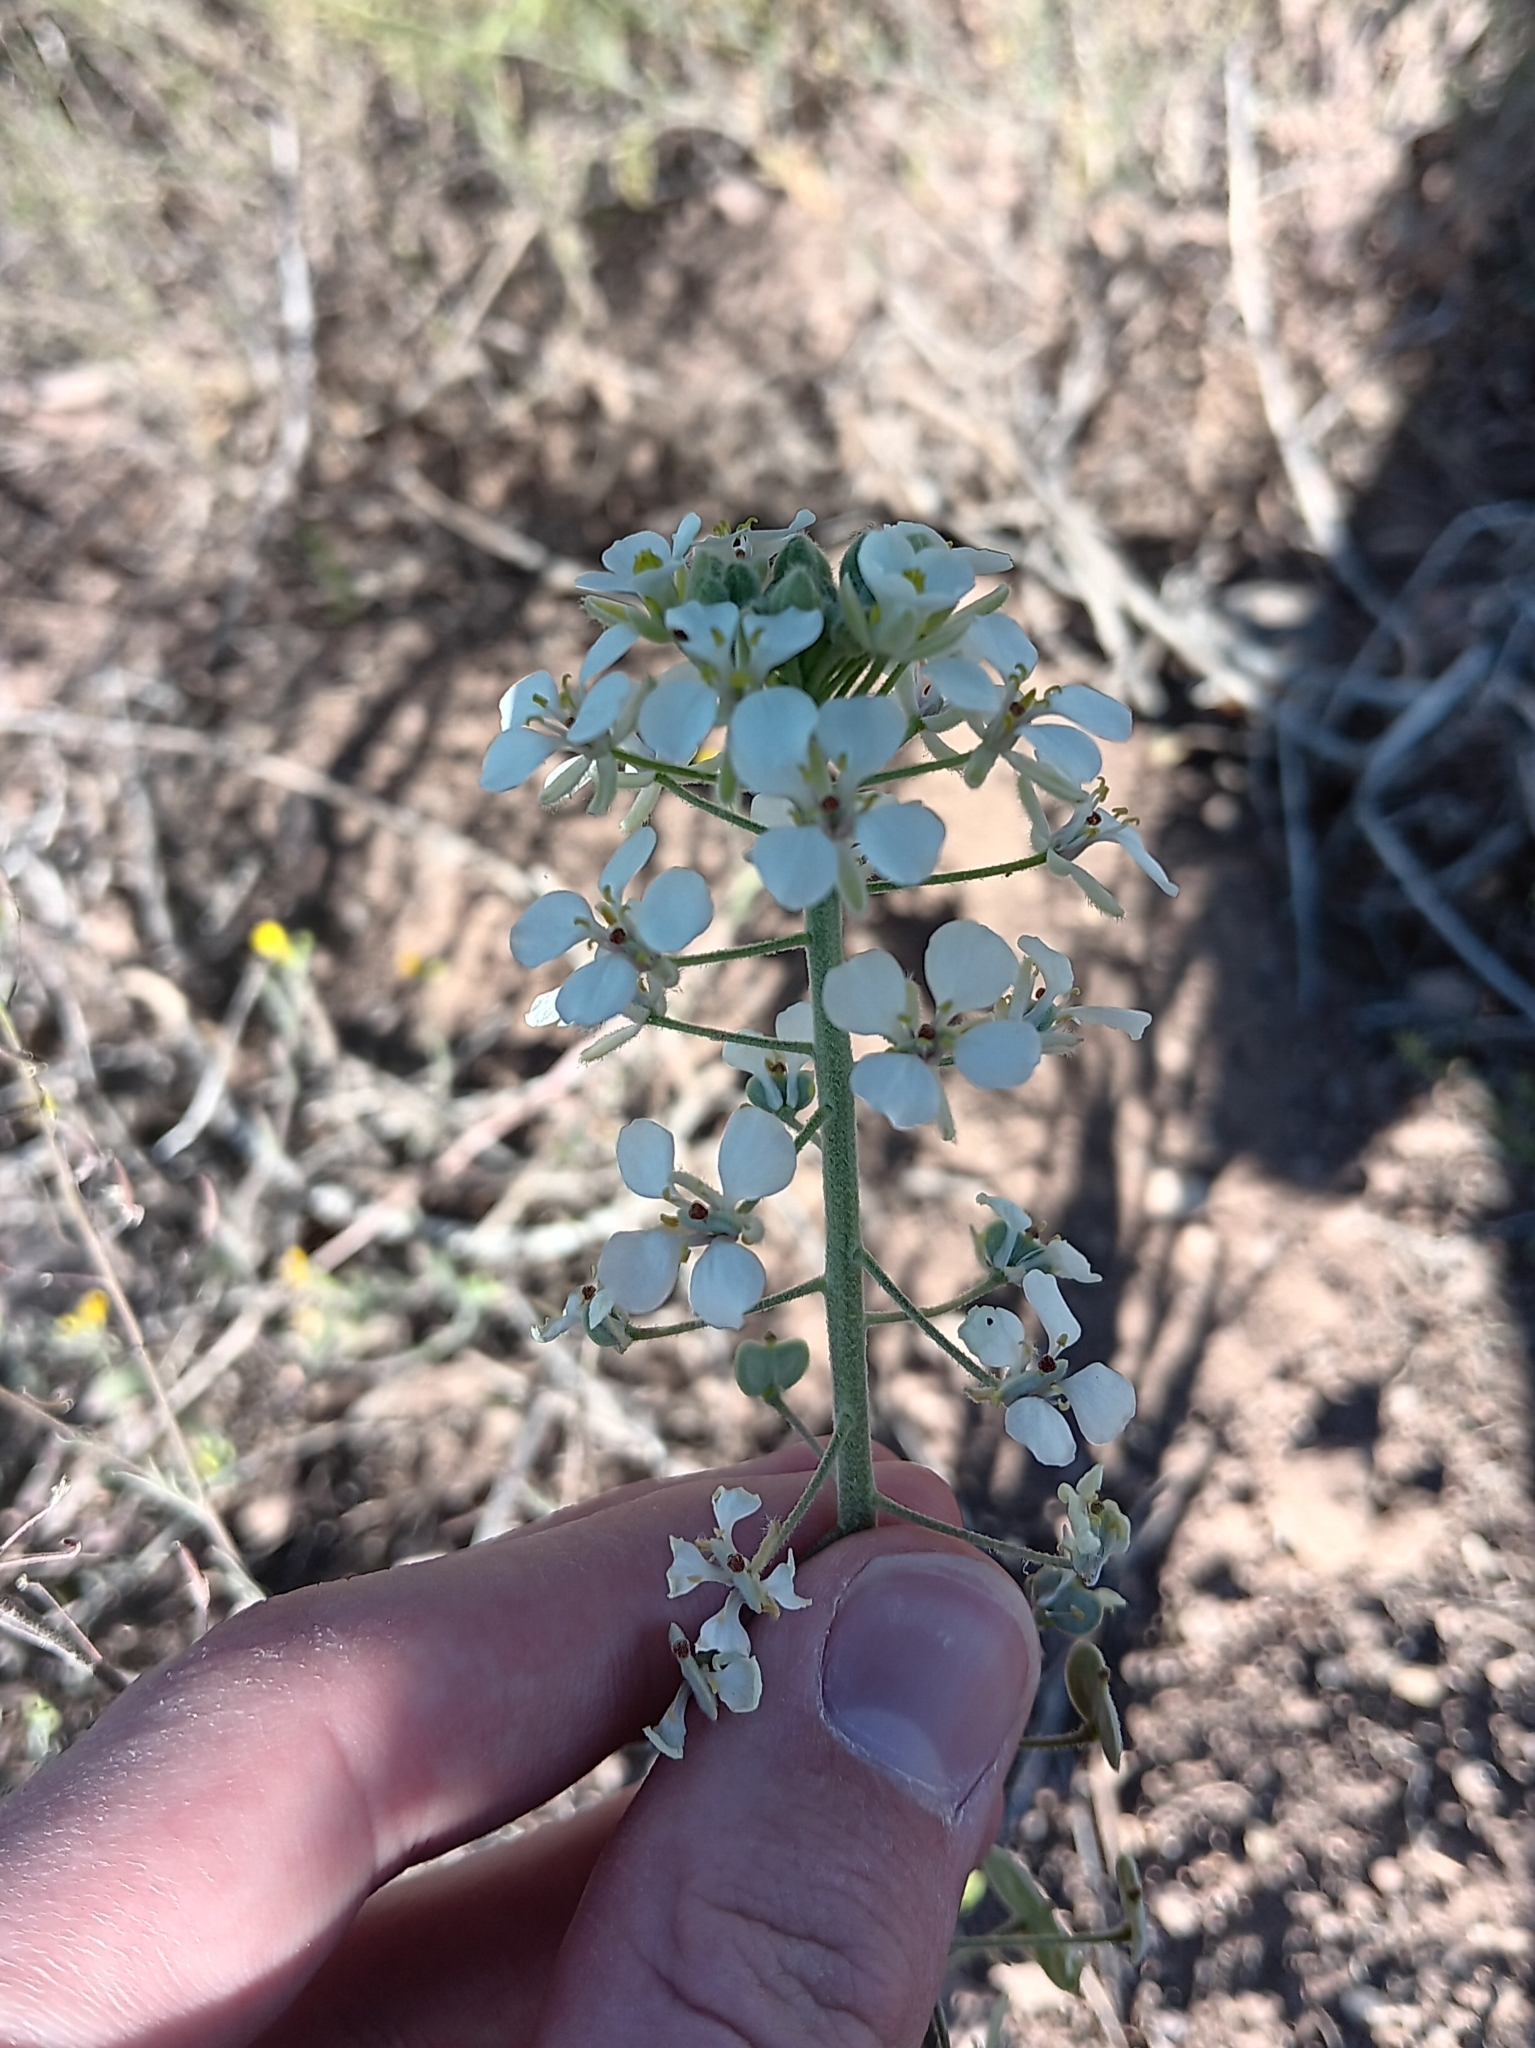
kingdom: Plantae
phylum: Tracheophyta
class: Magnoliopsida
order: Brassicales
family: Brassicaceae
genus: Dimorphocarpa
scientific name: Dimorphocarpa wislizenii
